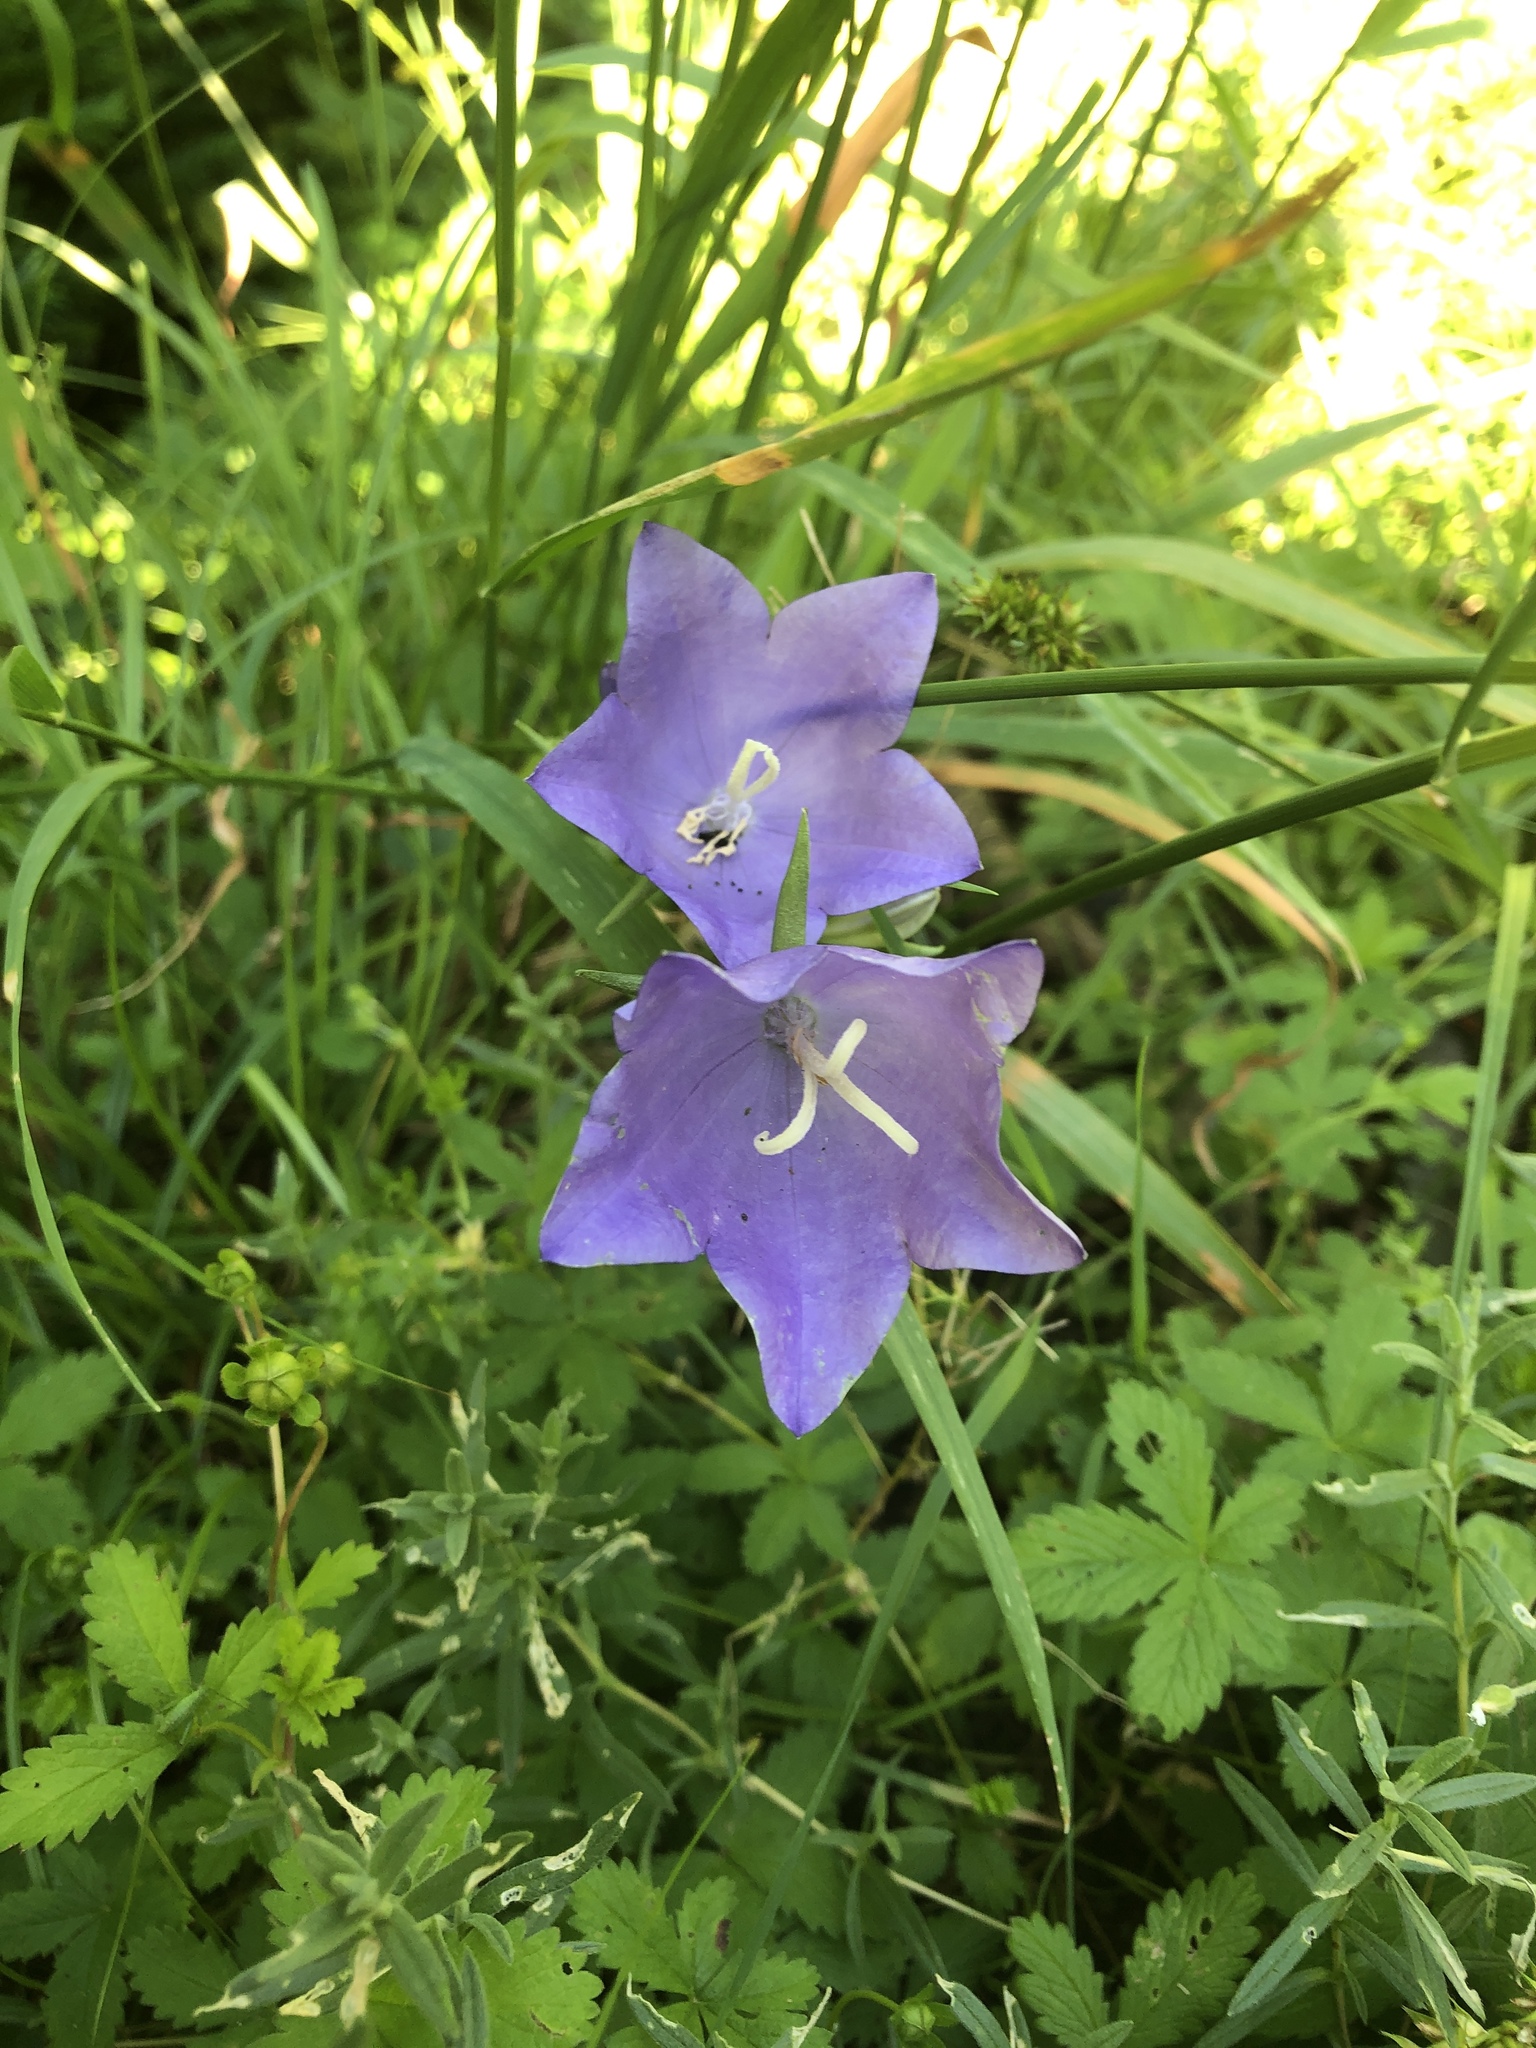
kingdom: Plantae
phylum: Tracheophyta
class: Magnoliopsida
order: Asterales
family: Campanulaceae
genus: Campanula
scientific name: Campanula persicifolia
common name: Peach-leaved bellflower
